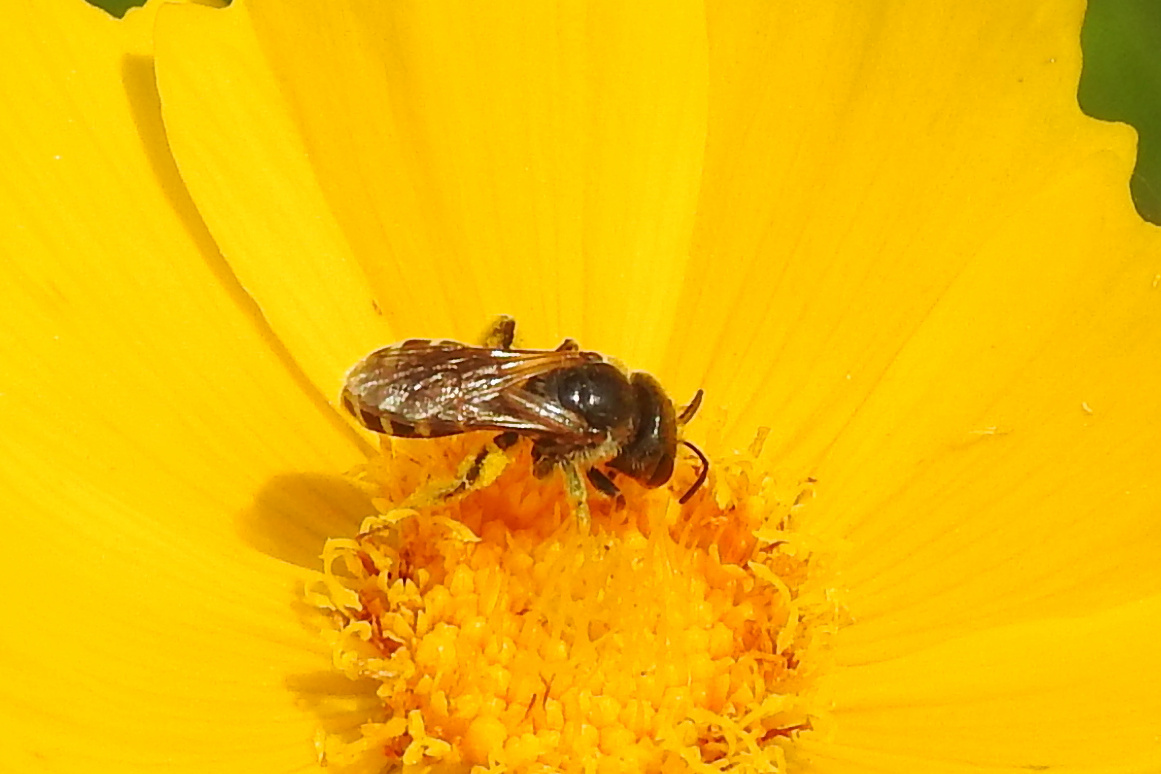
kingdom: Animalia
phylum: Arthropoda
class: Insecta
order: Hymenoptera
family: Halictidae
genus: Halictus
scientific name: Halictus ligatus
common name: Ligated furrow bee
